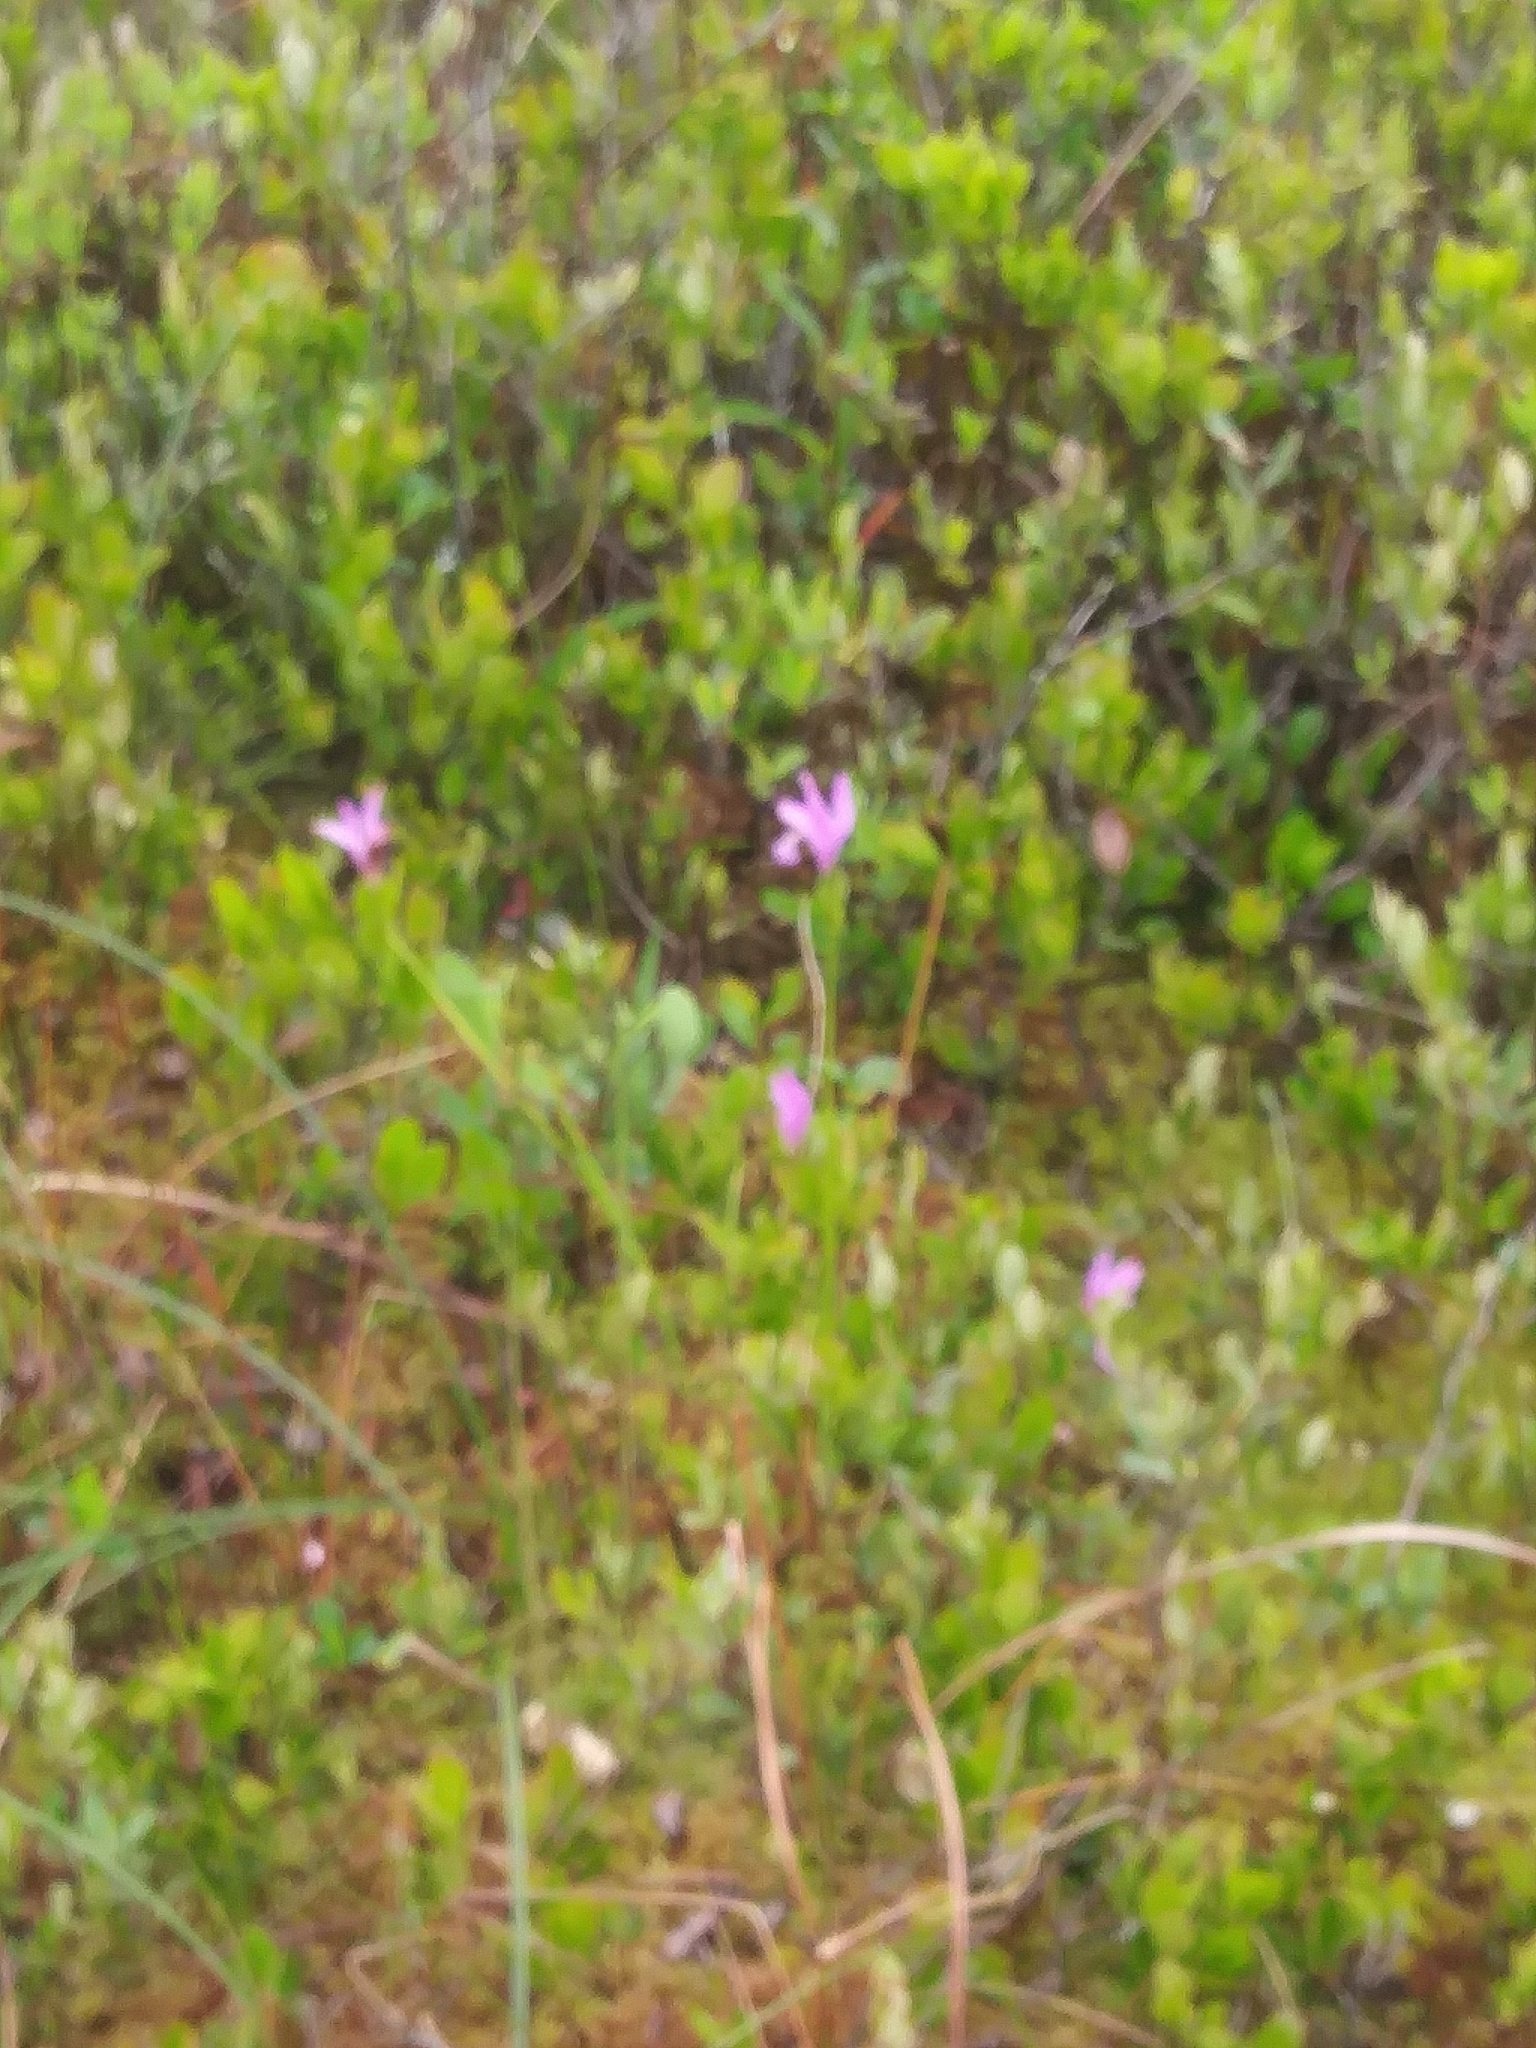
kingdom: Plantae
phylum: Tracheophyta
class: Liliopsida
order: Asparagales
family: Orchidaceae
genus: Arethusa
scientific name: Arethusa bulbosa
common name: Arethusa
